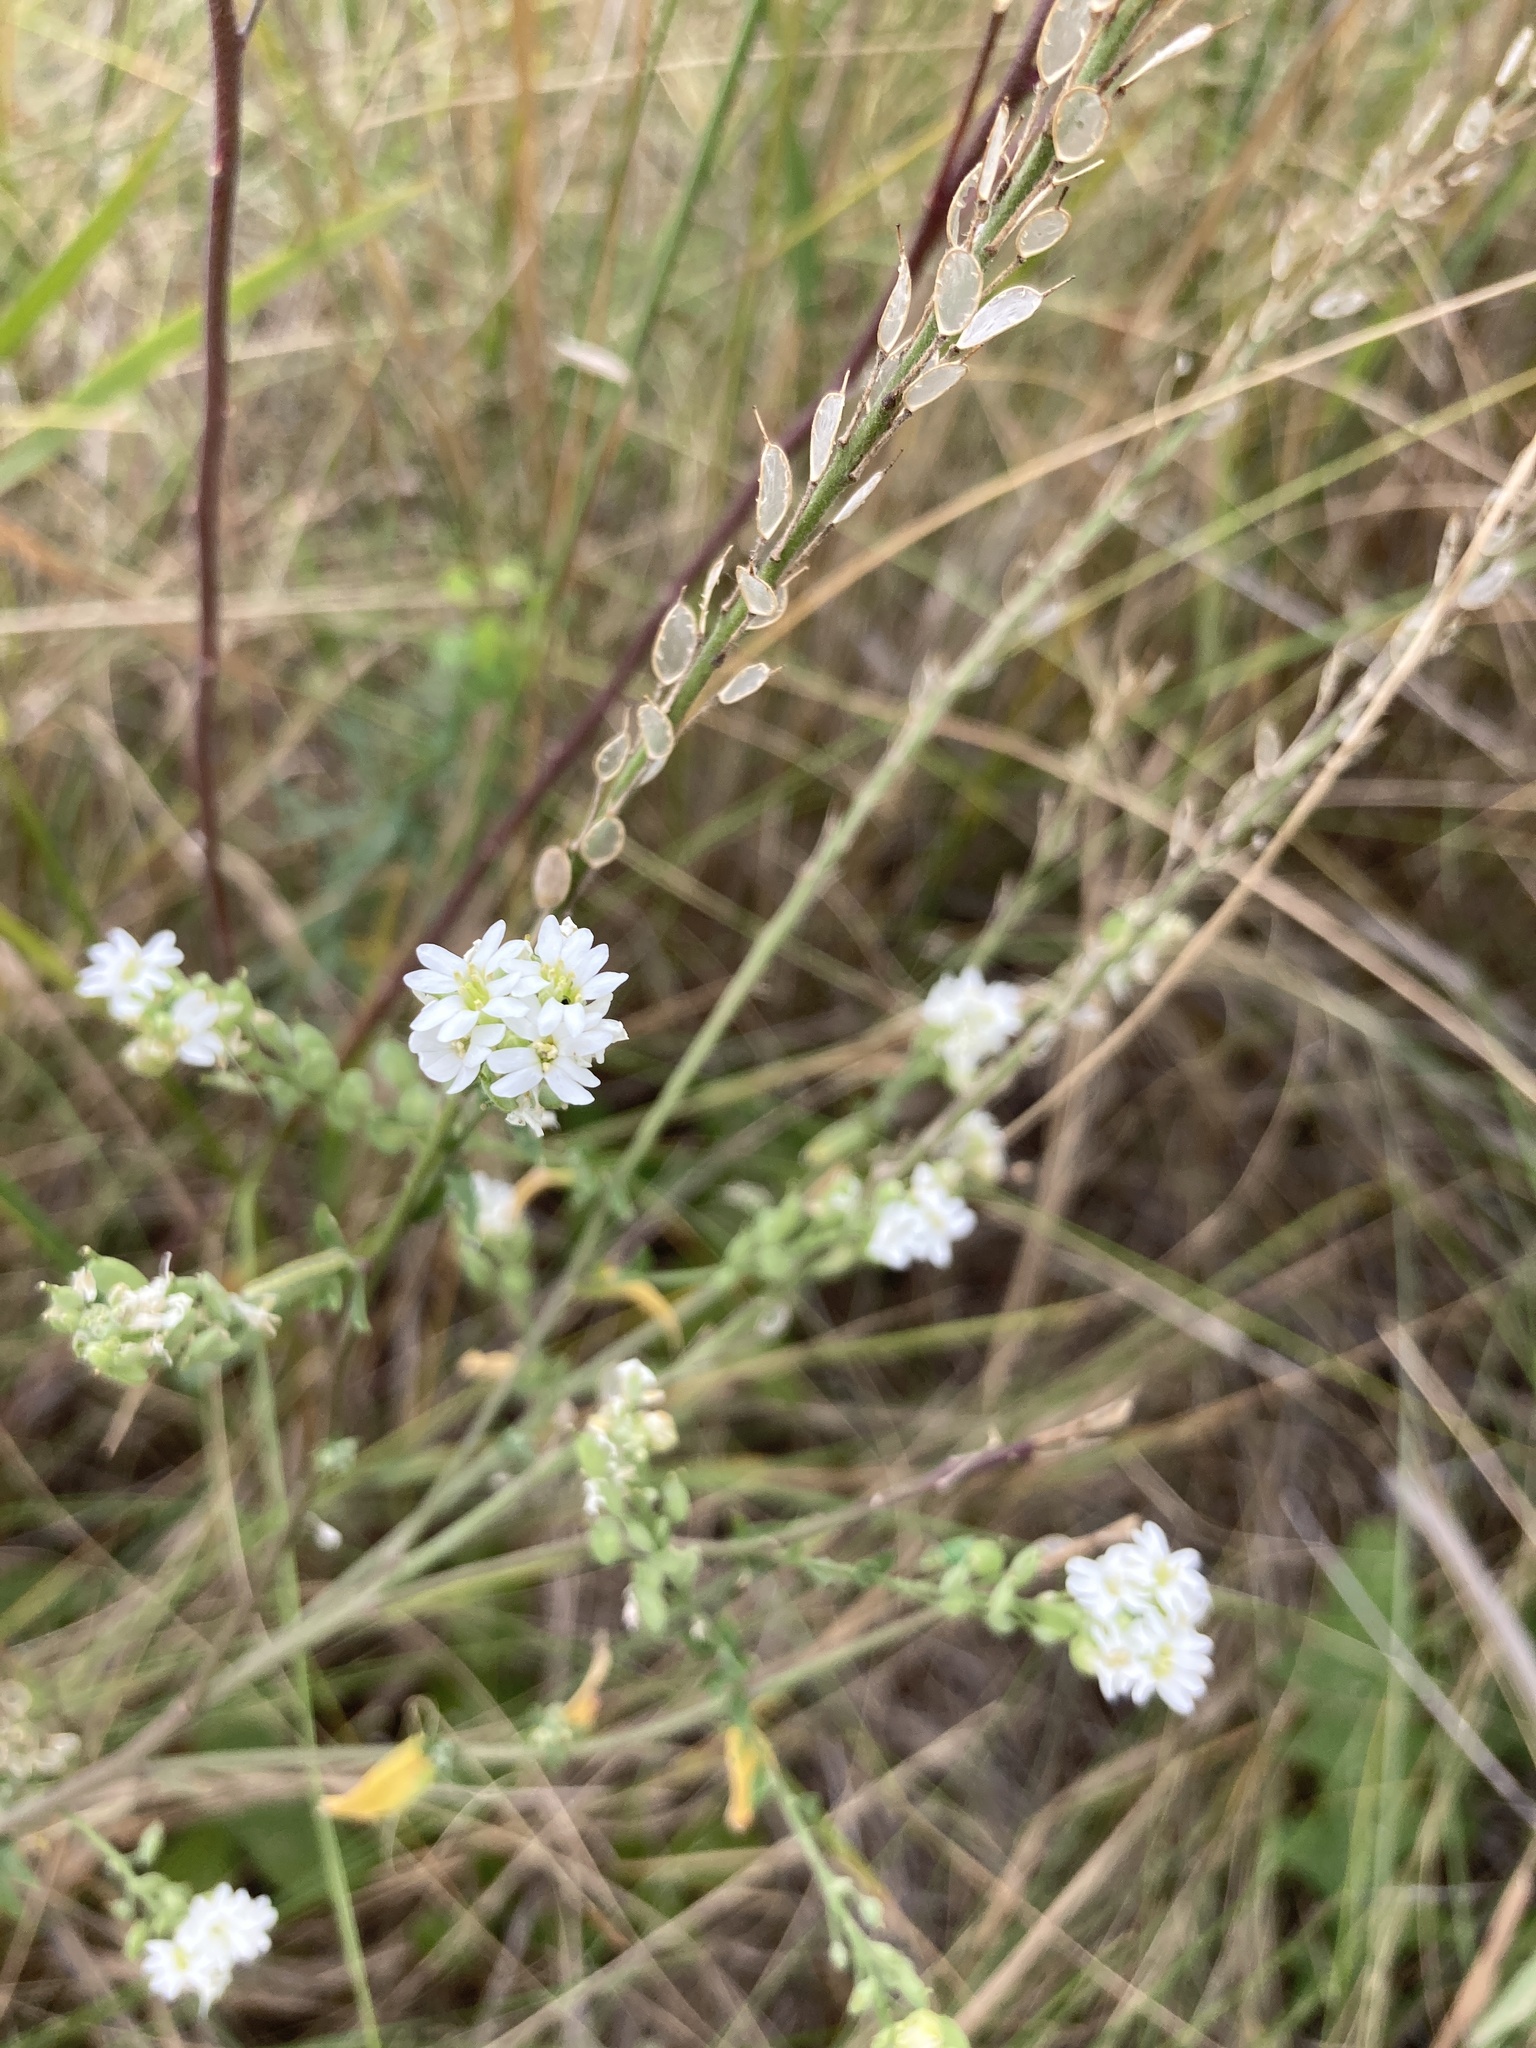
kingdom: Plantae
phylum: Tracheophyta
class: Magnoliopsida
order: Brassicales
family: Brassicaceae
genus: Berteroa
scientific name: Berteroa incana
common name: Hoary alison
